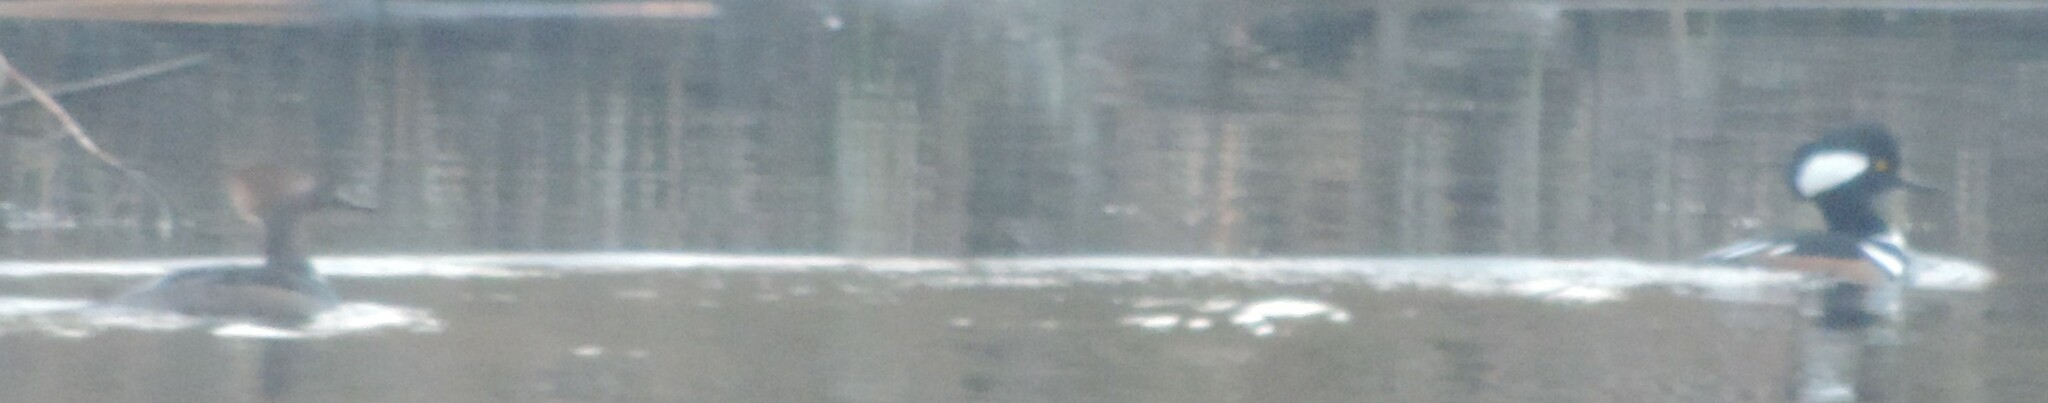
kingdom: Animalia
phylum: Chordata
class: Aves
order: Anseriformes
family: Anatidae
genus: Lophodytes
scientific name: Lophodytes cucullatus
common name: Hooded merganser
